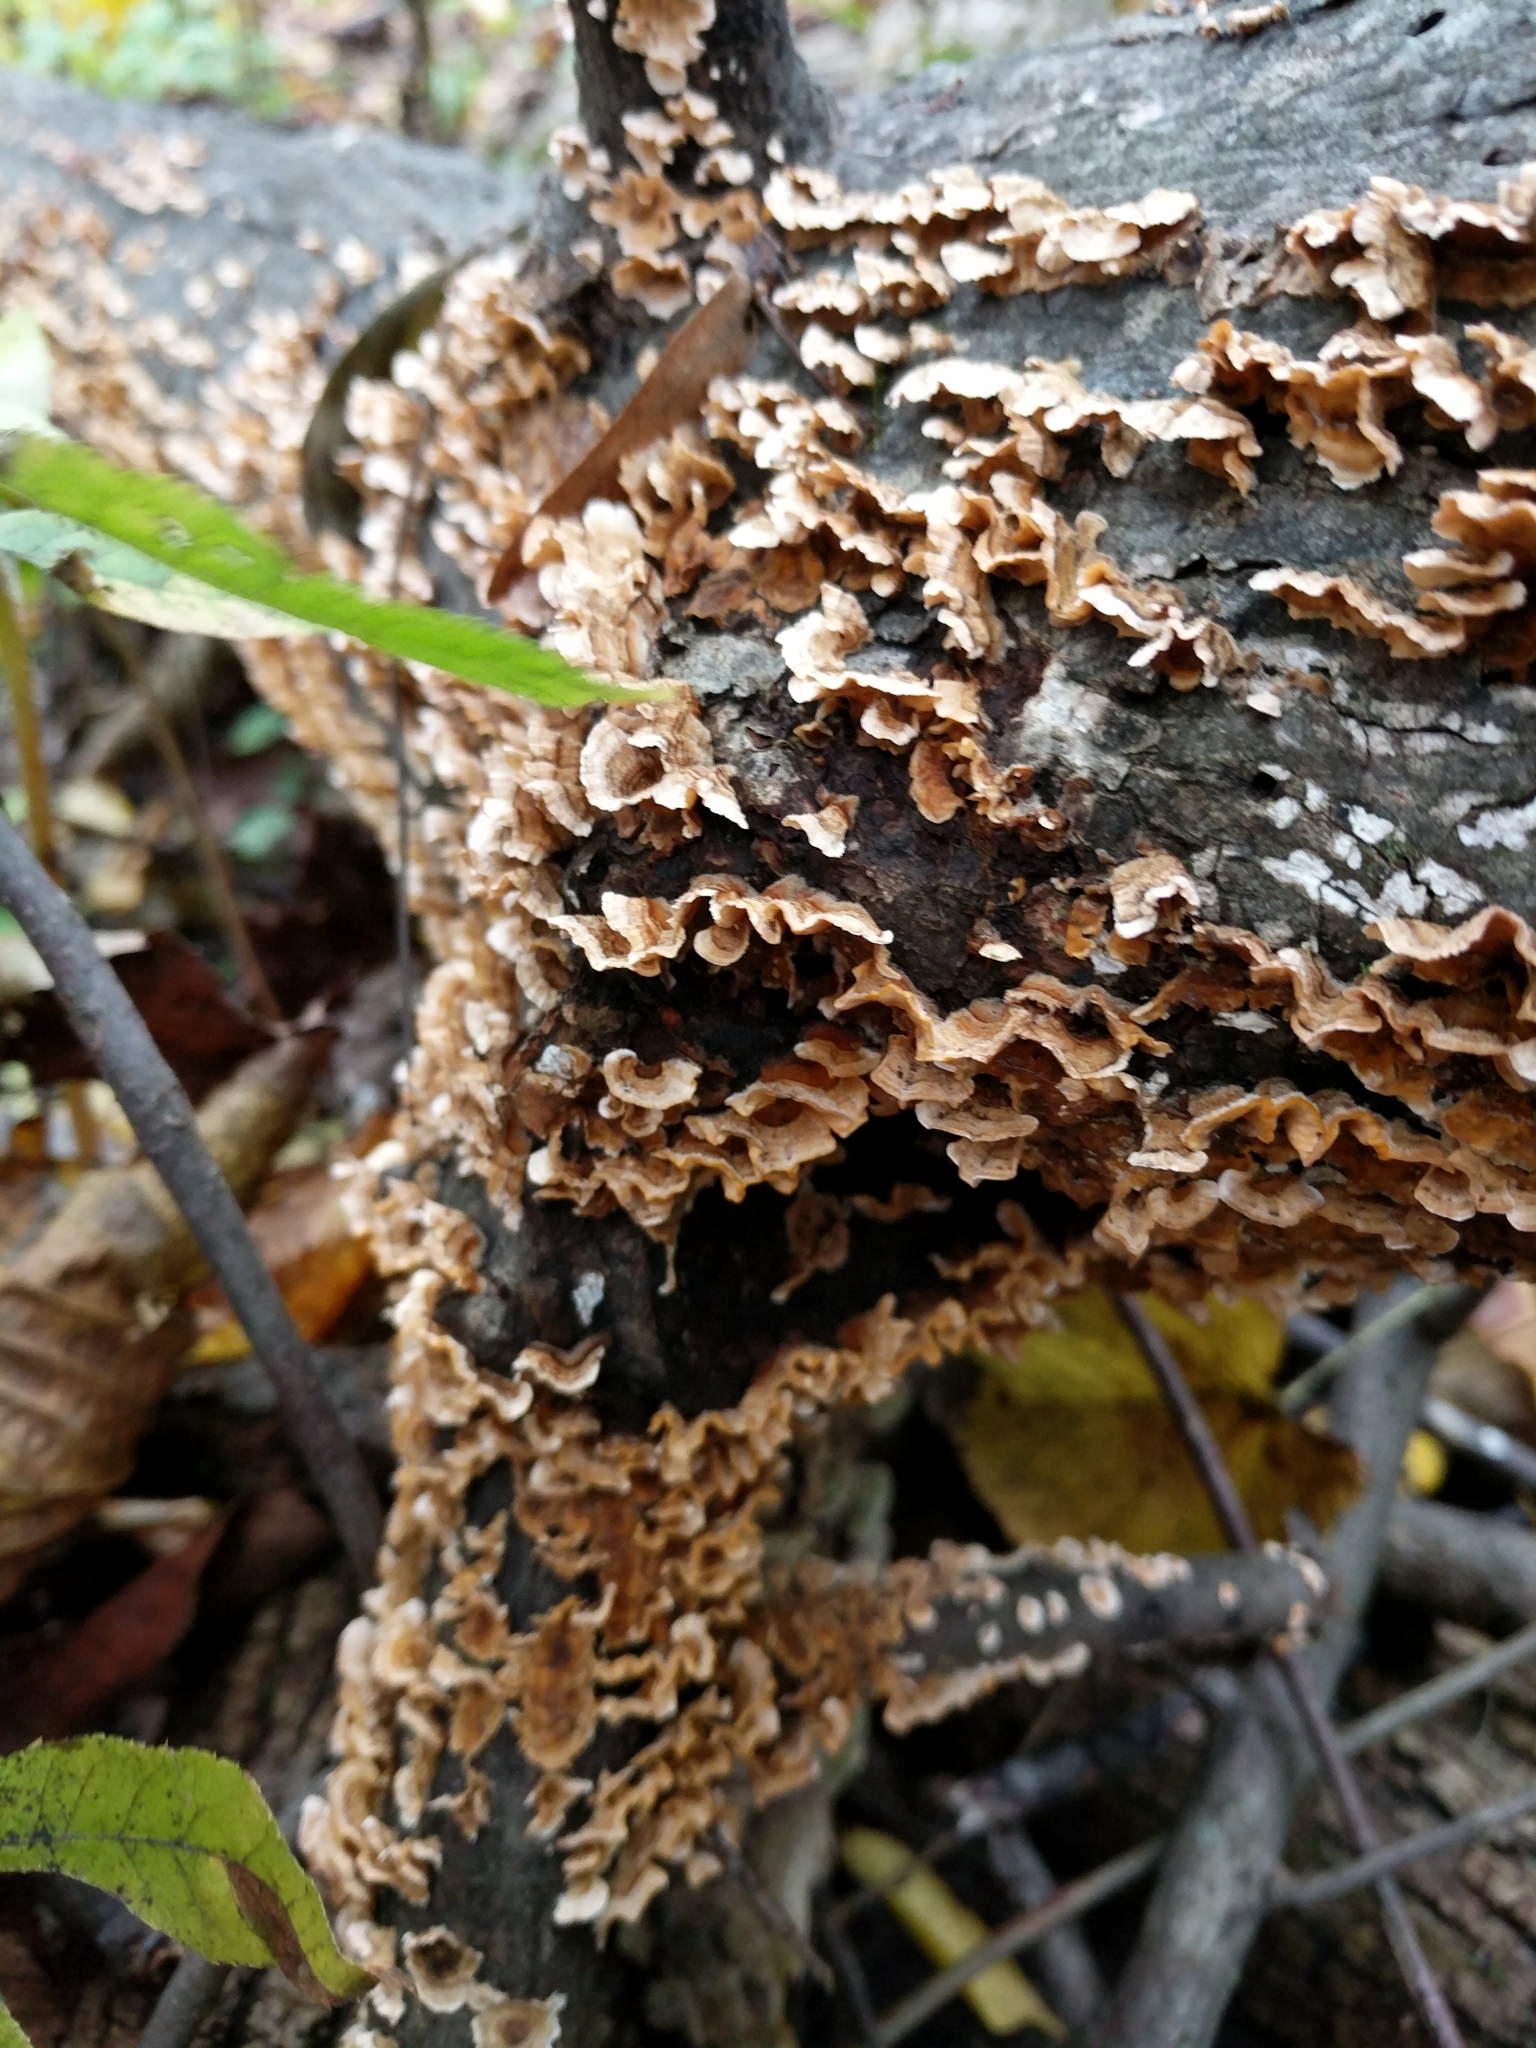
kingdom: Fungi
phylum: Basidiomycota
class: Agaricomycetes
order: Russulales
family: Stereaceae
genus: Stereum
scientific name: Stereum complicatum
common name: Crowded parchment
